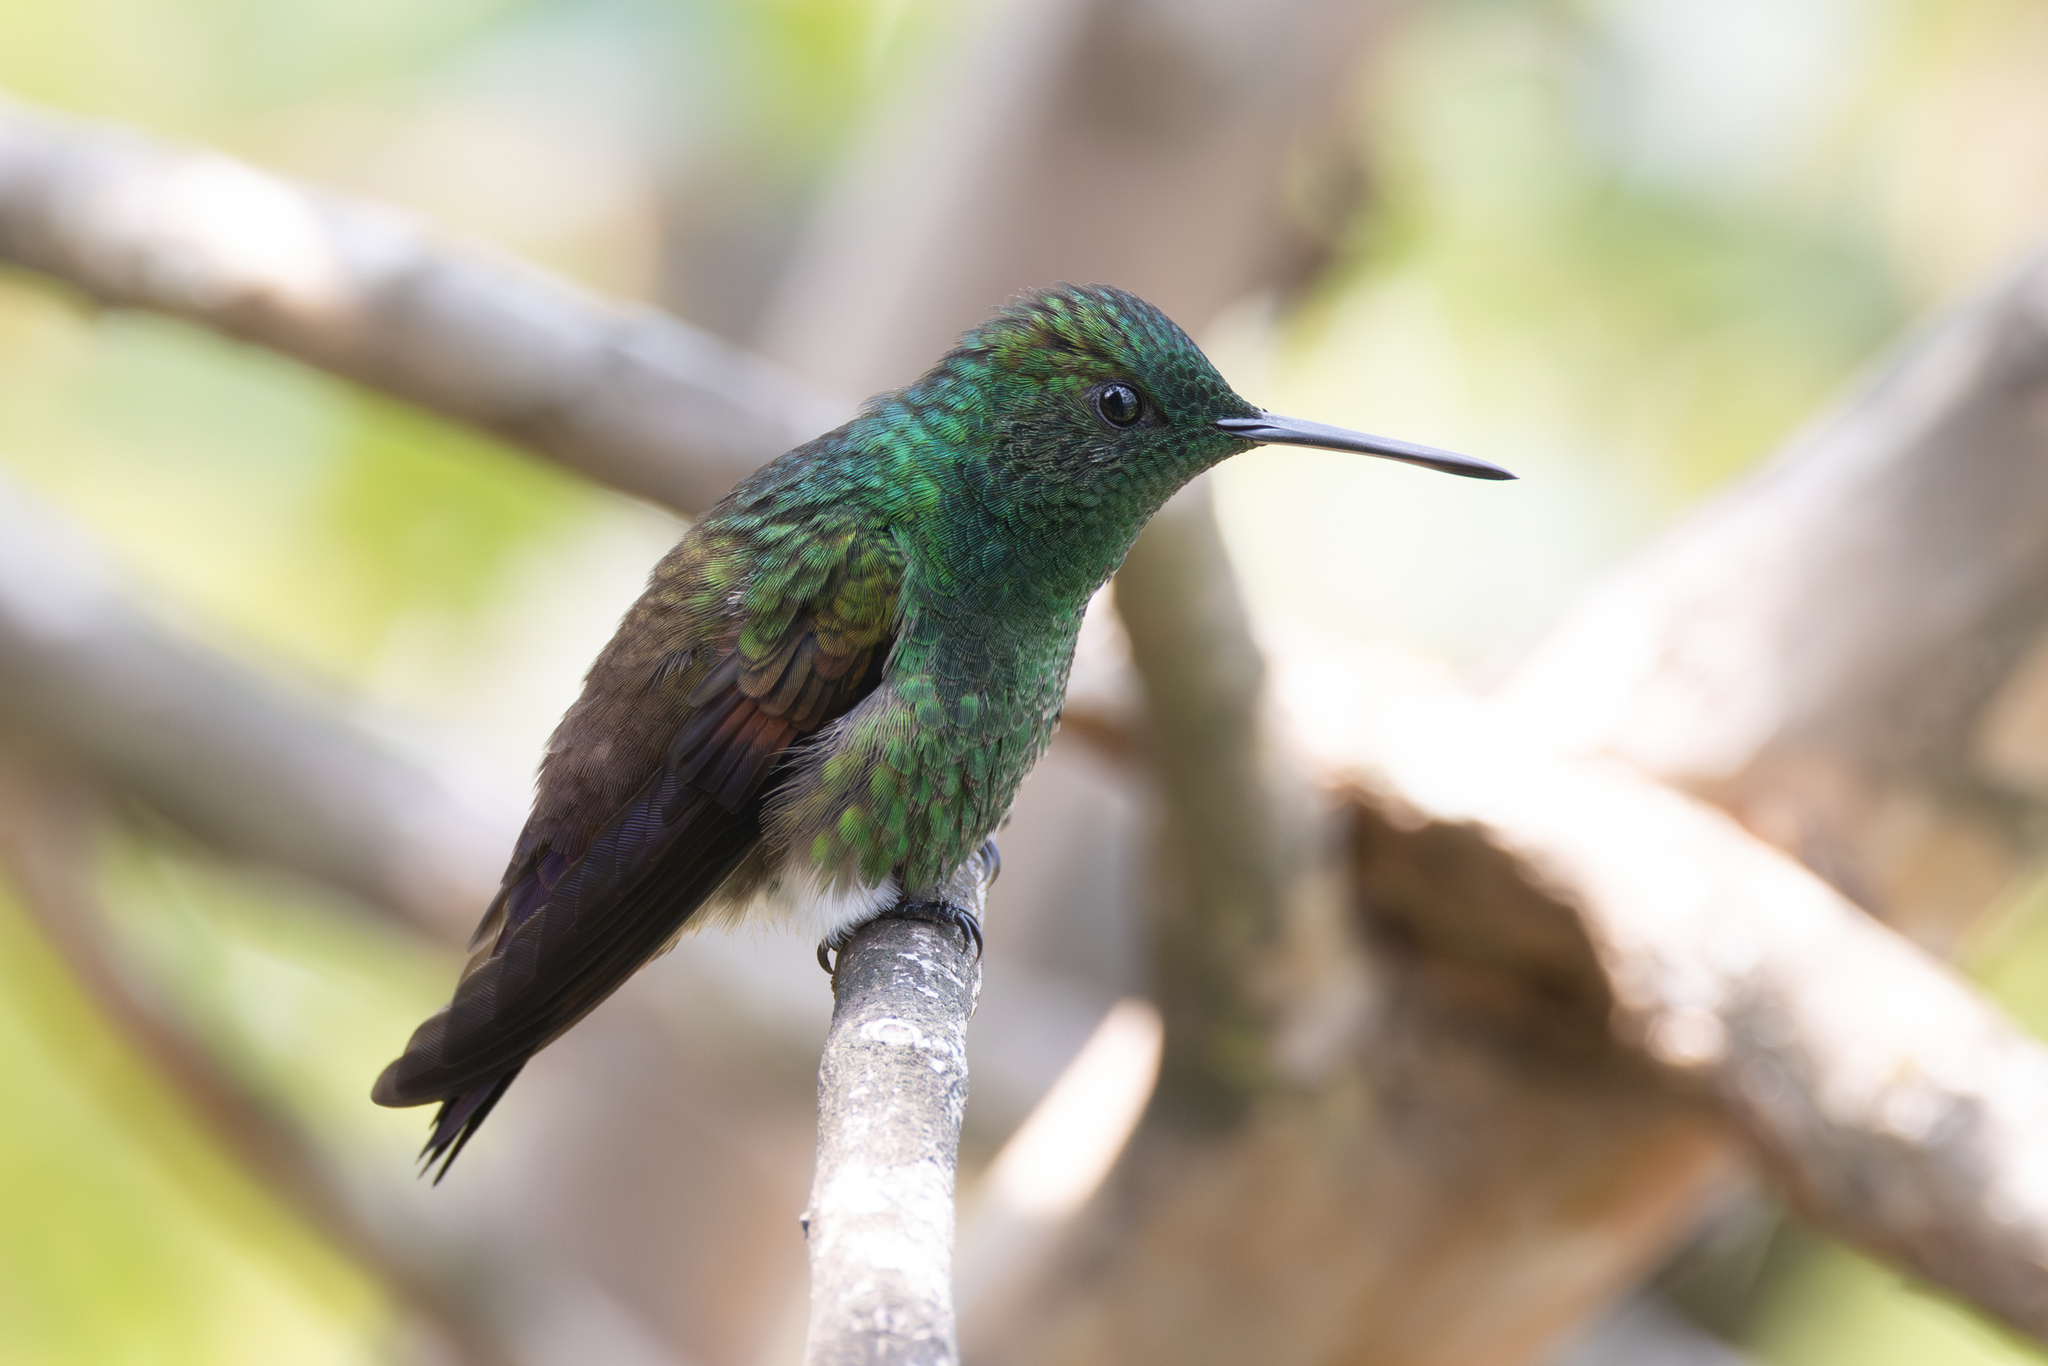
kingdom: Animalia
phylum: Chordata
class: Aves
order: Apodiformes
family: Trochilidae
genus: Saucerottia
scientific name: Saucerottia beryllina
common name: Berylline hummingbird
